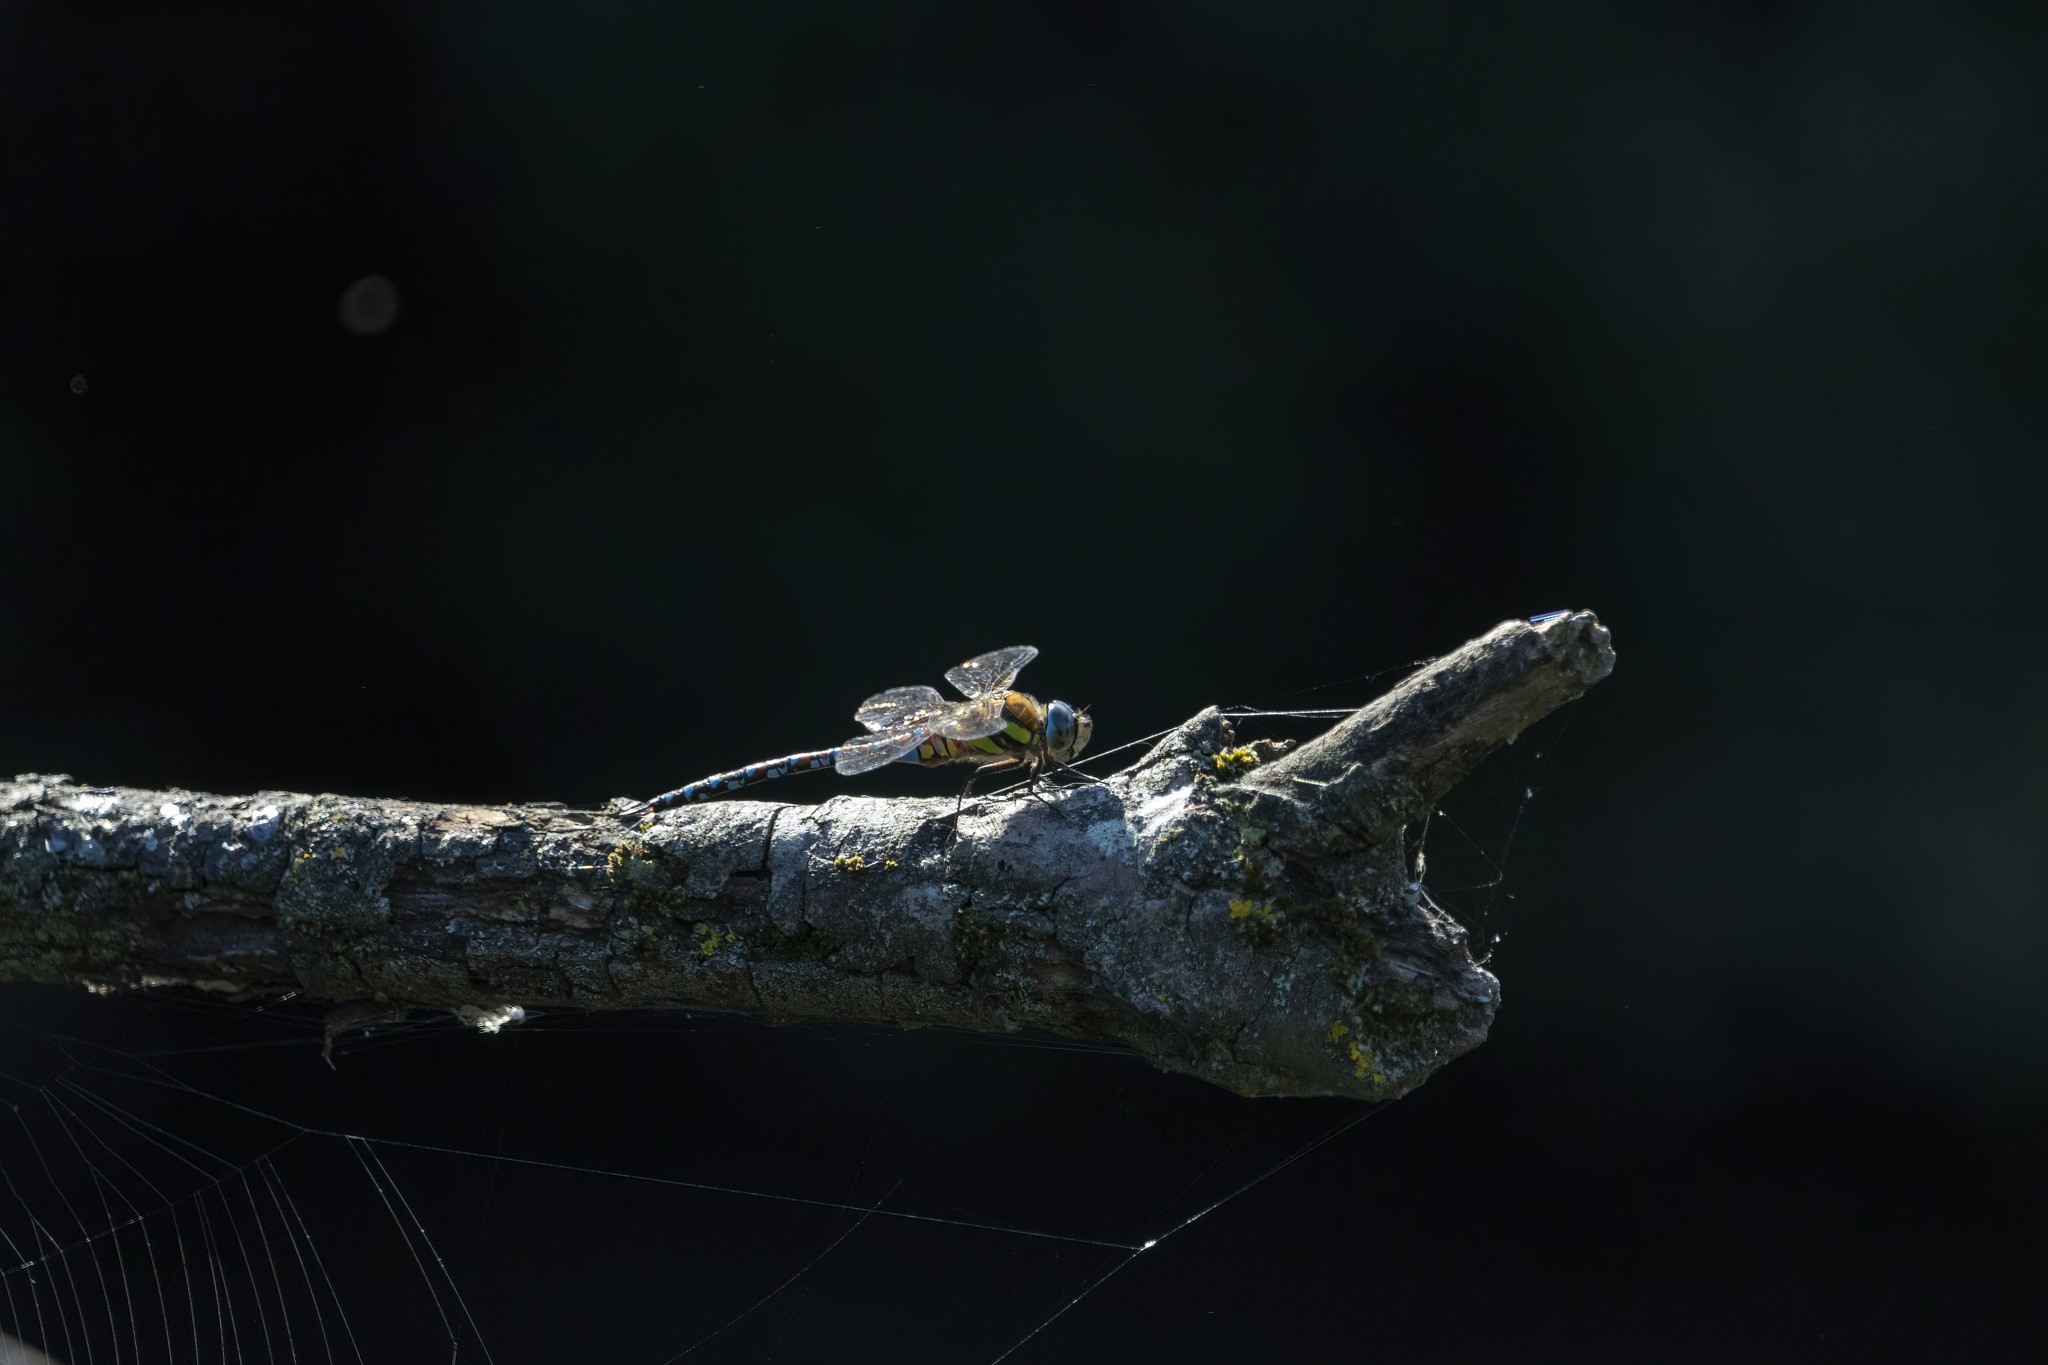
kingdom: Animalia
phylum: Arthropoda
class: Insecta
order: Odonata
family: Aeshnidae
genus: Aeshna
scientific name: Aeshna mixta
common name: Migrant hawker
